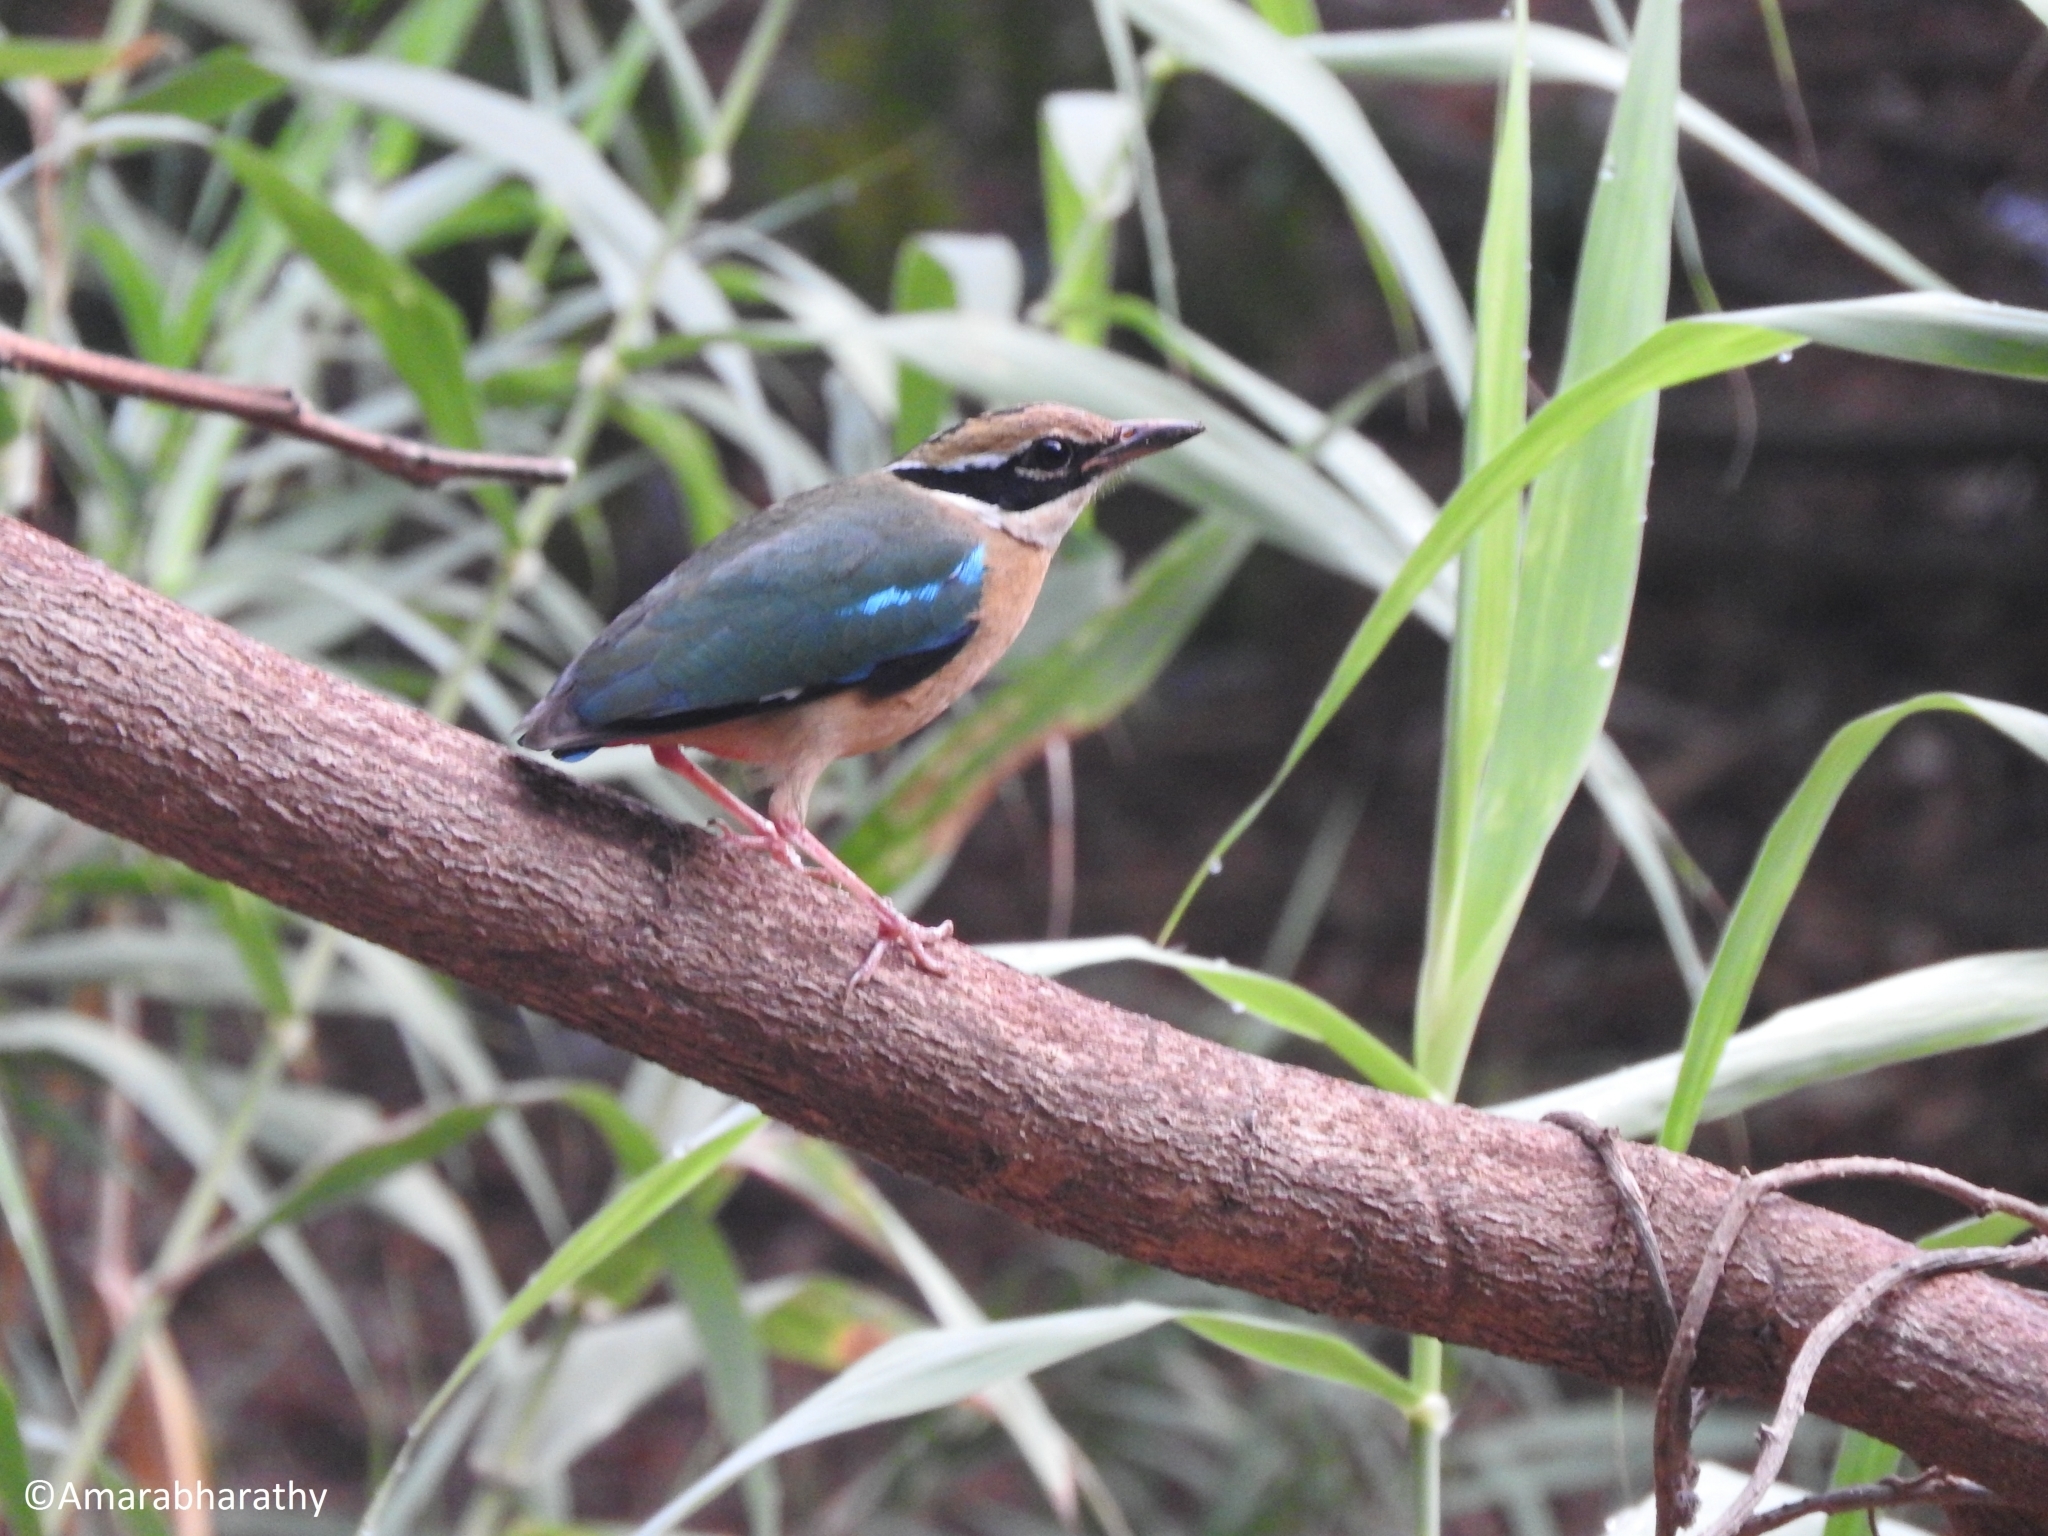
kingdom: Animalia
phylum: Chordata
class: Aves
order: Passeriformes
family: Pittidae
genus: Pitta
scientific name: Pitta brachyura
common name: Indian pitta
